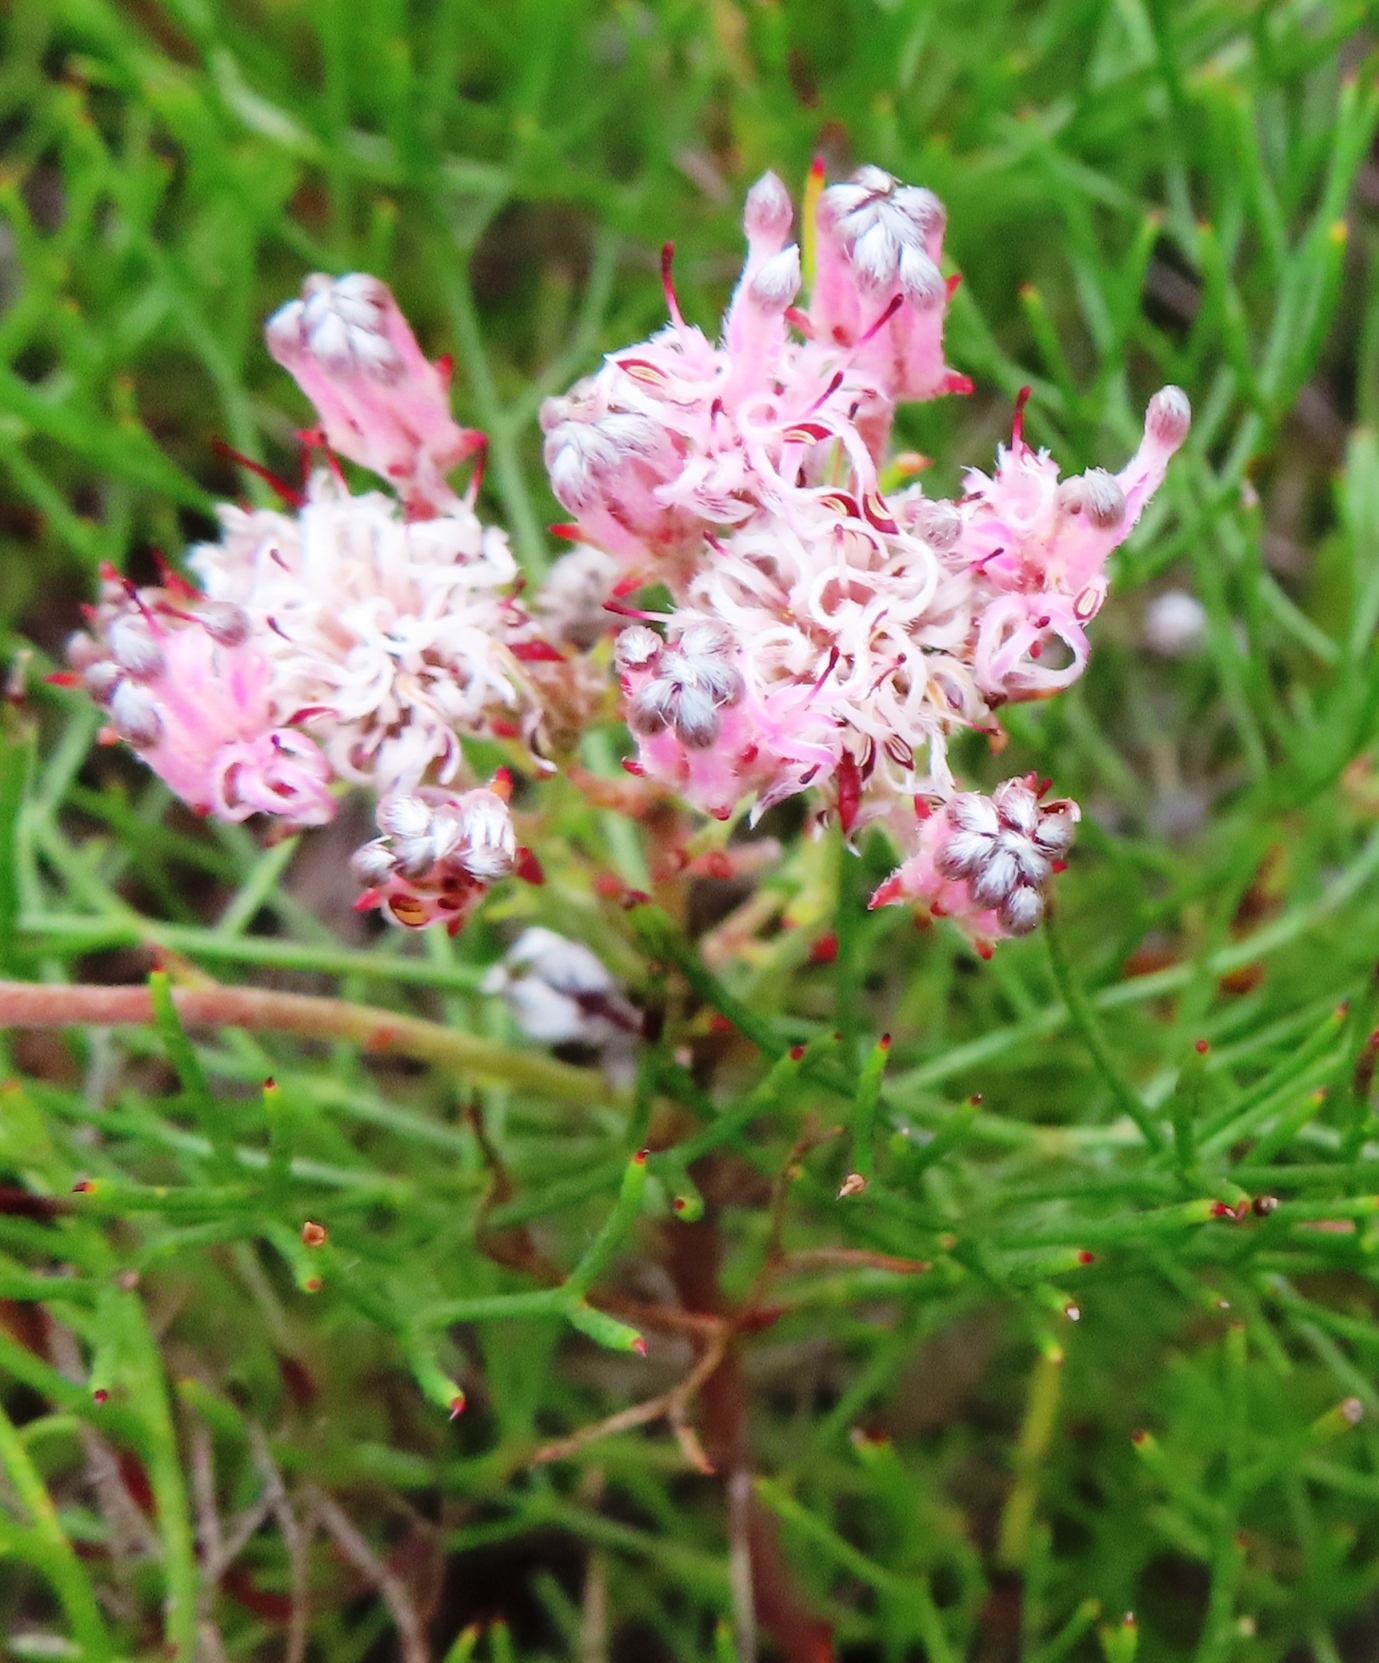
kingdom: Plantae
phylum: Tracheophyta
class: Magnoliopsida
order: Proteales
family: Proteaceae
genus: Serruria
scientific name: Serruria bolusii
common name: Agulhas spiderhead
